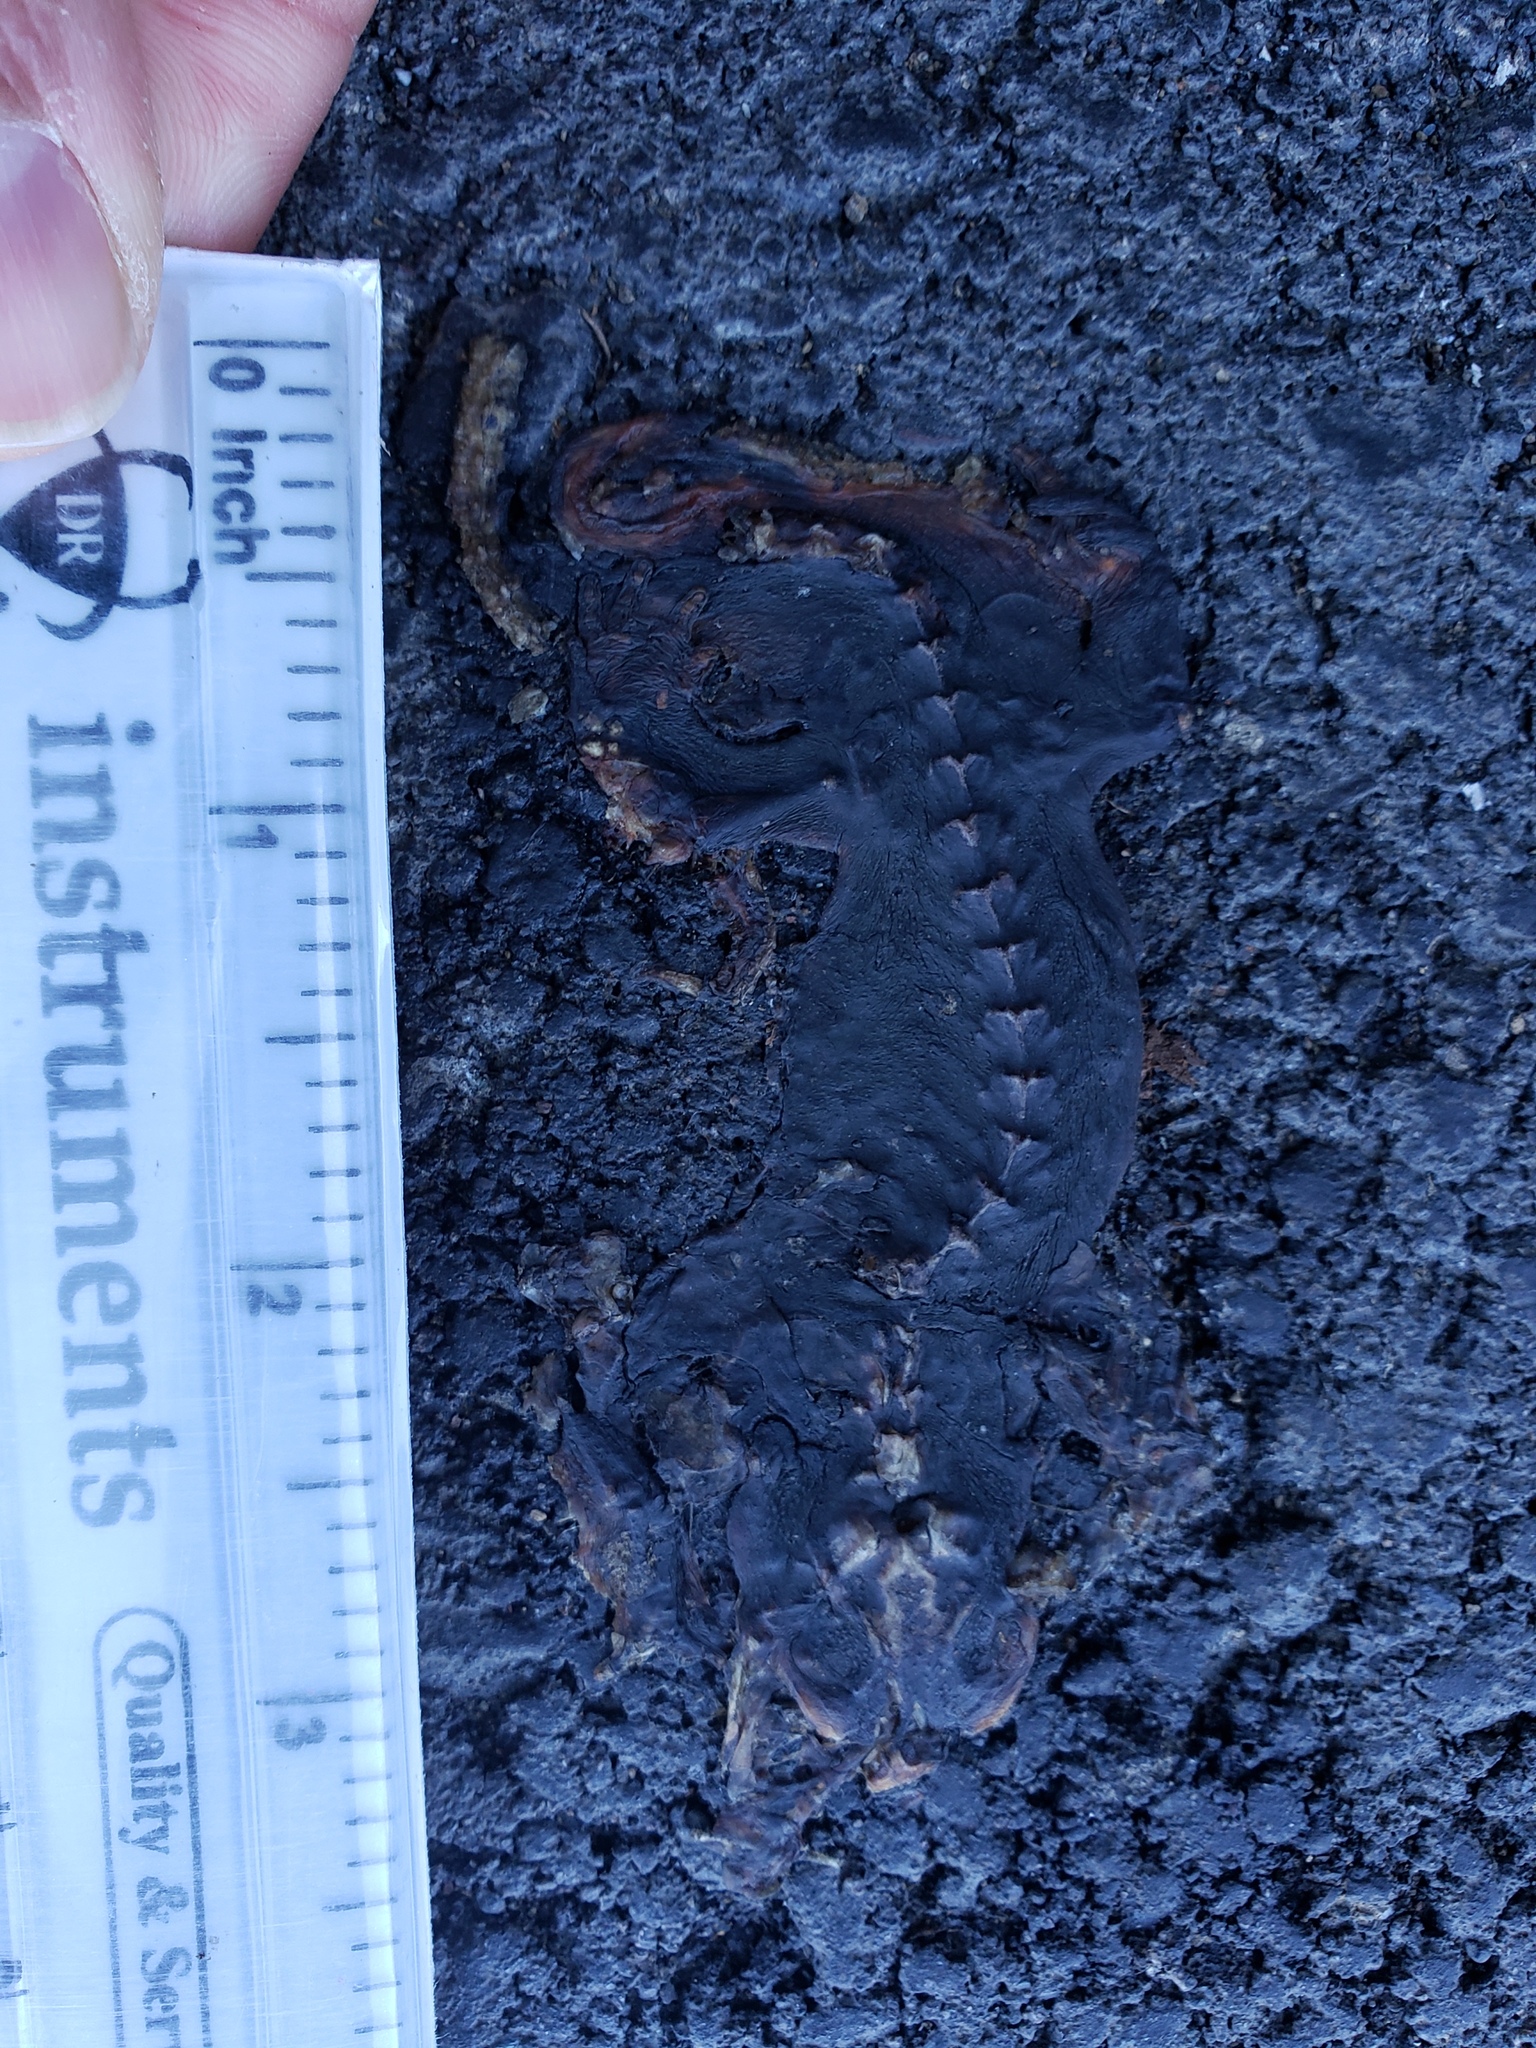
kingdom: Animalia
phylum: Chordata
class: Amphibia
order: Caudata
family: Salamandridae
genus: Taricha
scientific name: Taricha
